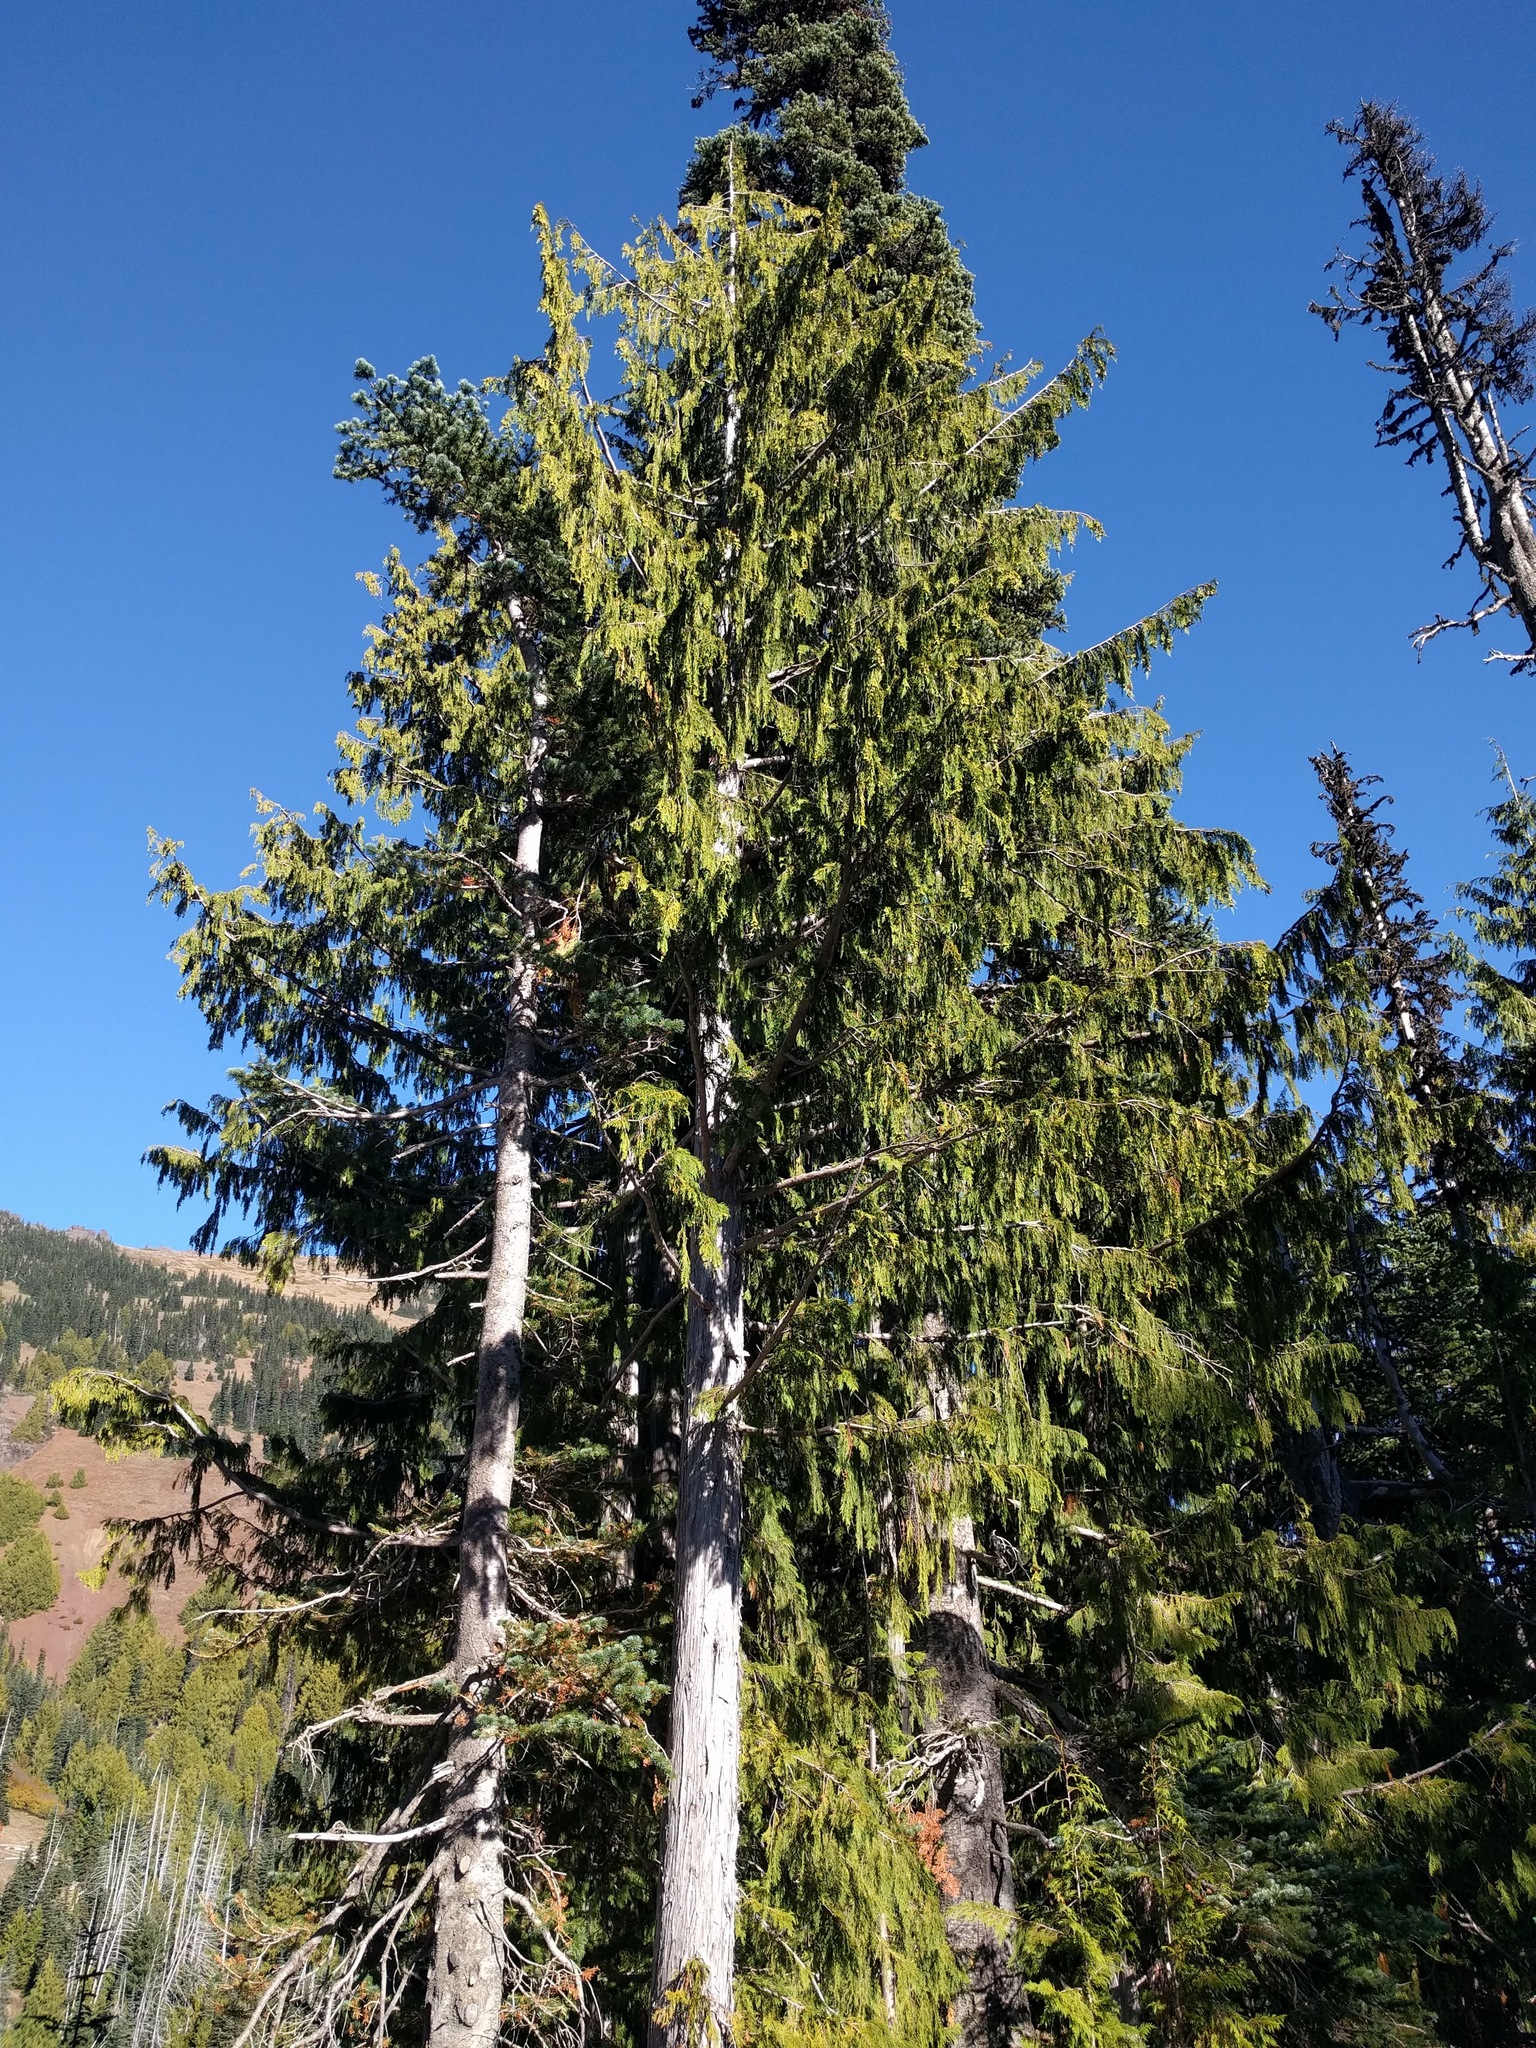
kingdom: Plantae
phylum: Tracheophyta
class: Pinopsida
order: Pinales
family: Cupressaceae
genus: Xanthocyparis
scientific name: Xanthocyparis nootkatensis
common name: Nootka cypress
